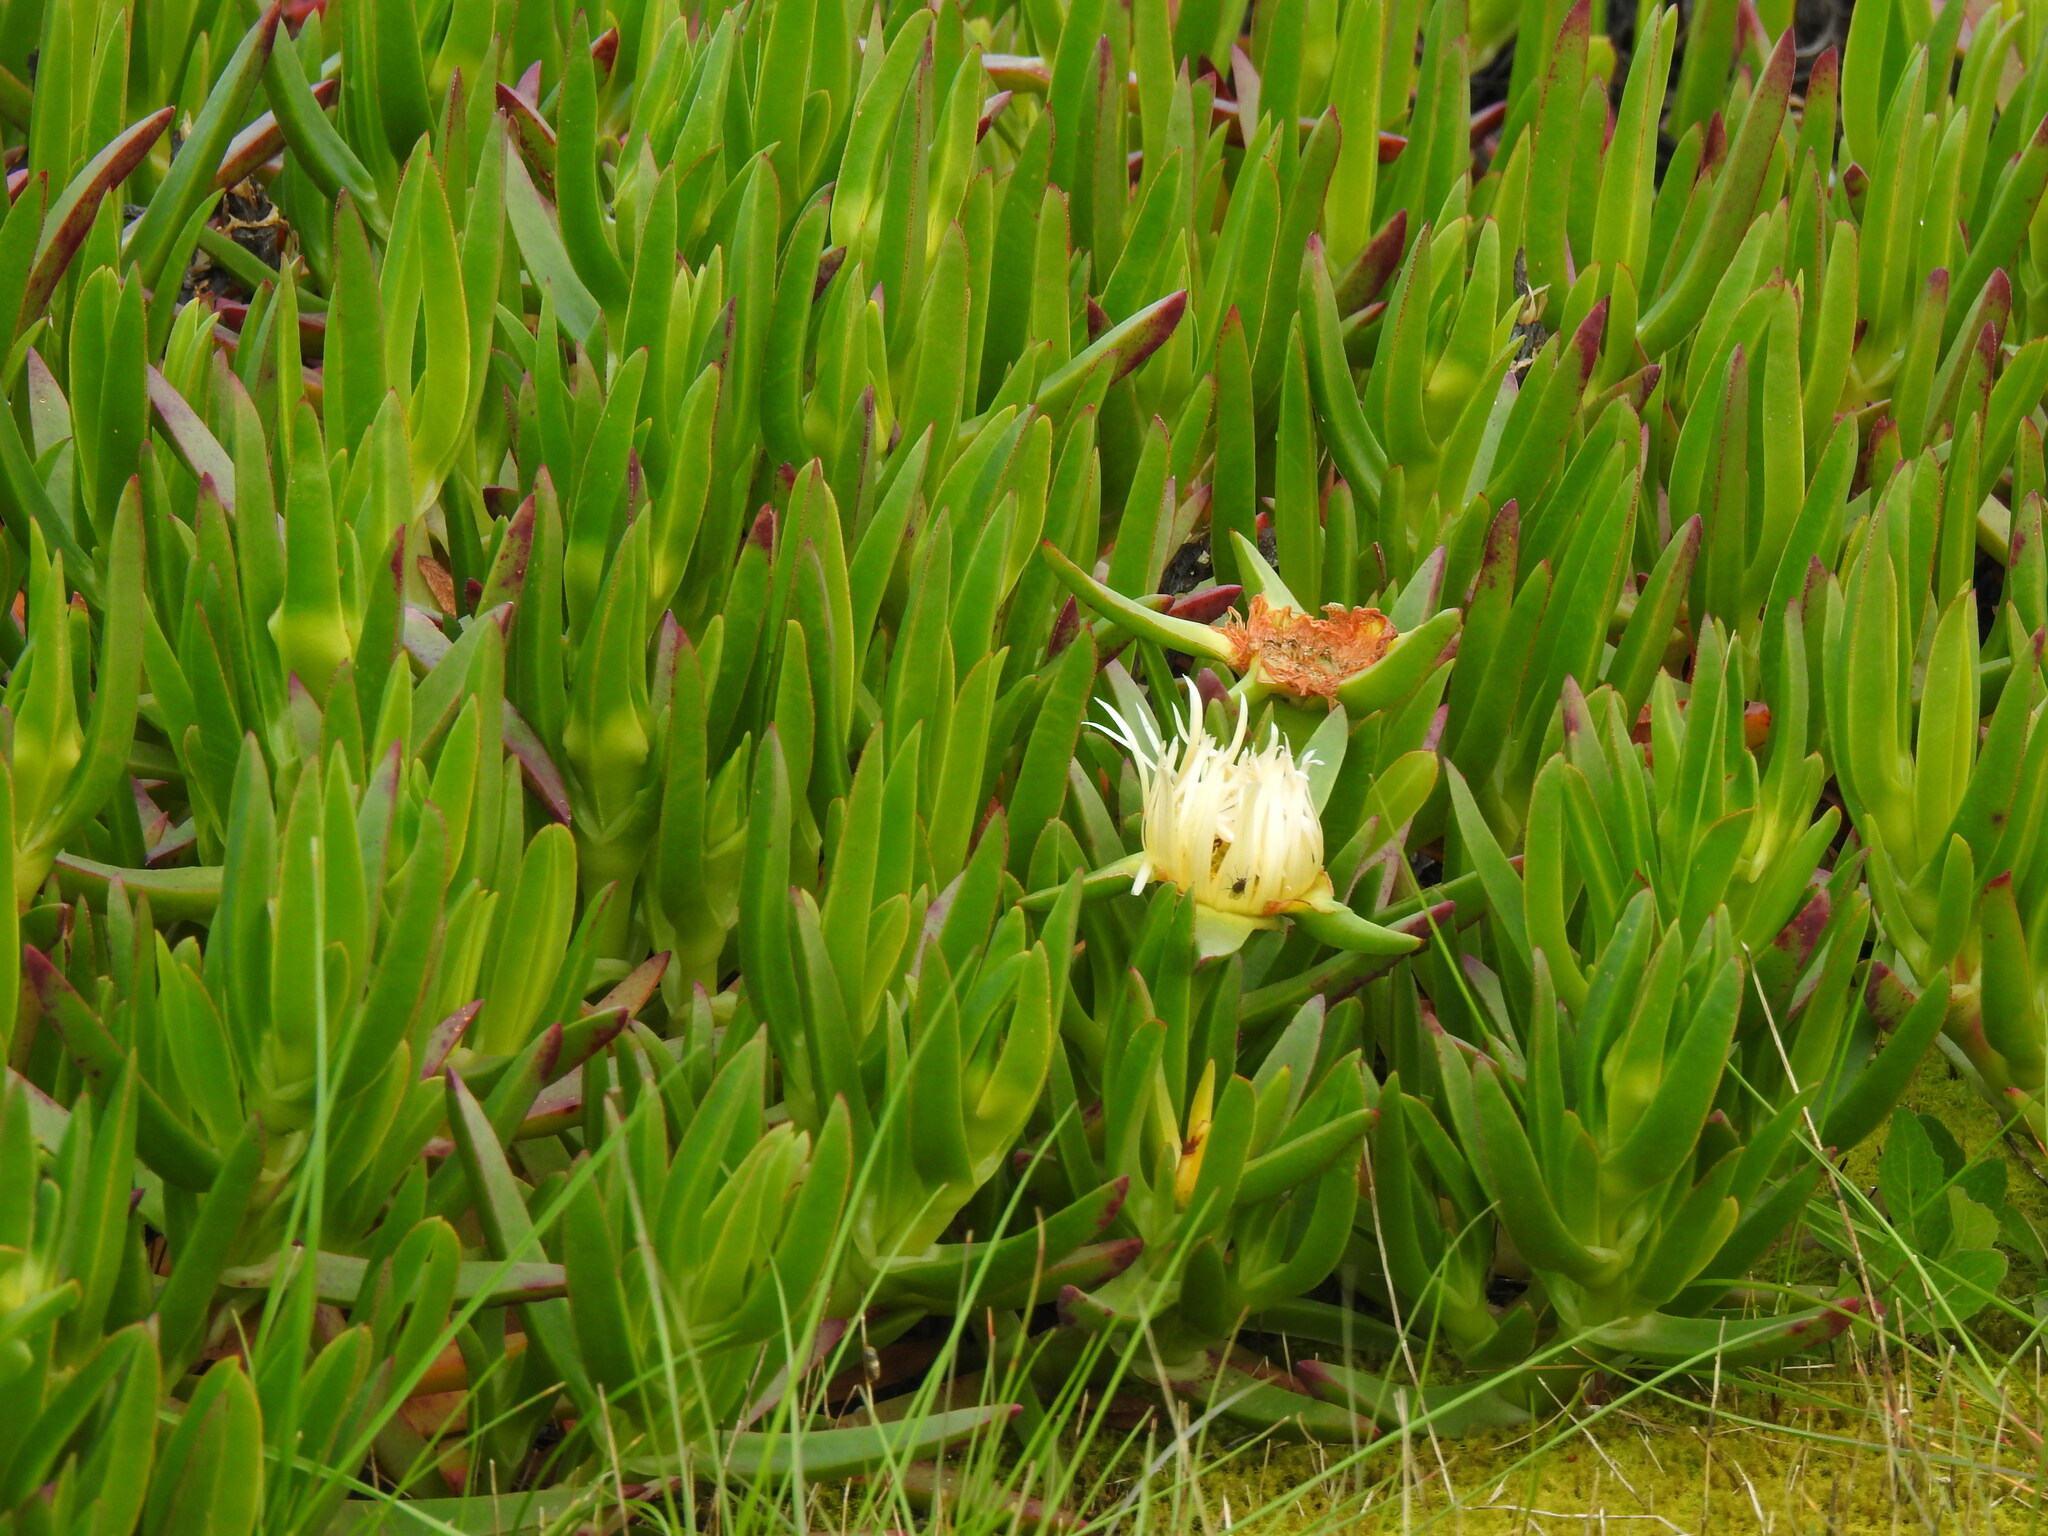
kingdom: Plantae
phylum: Tracheophyta
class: Magnoliopsida
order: Caryophyllales
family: Aizoaceae
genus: Carpobrotus
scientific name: Carpobrotus edulis
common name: Hottentot-fig
